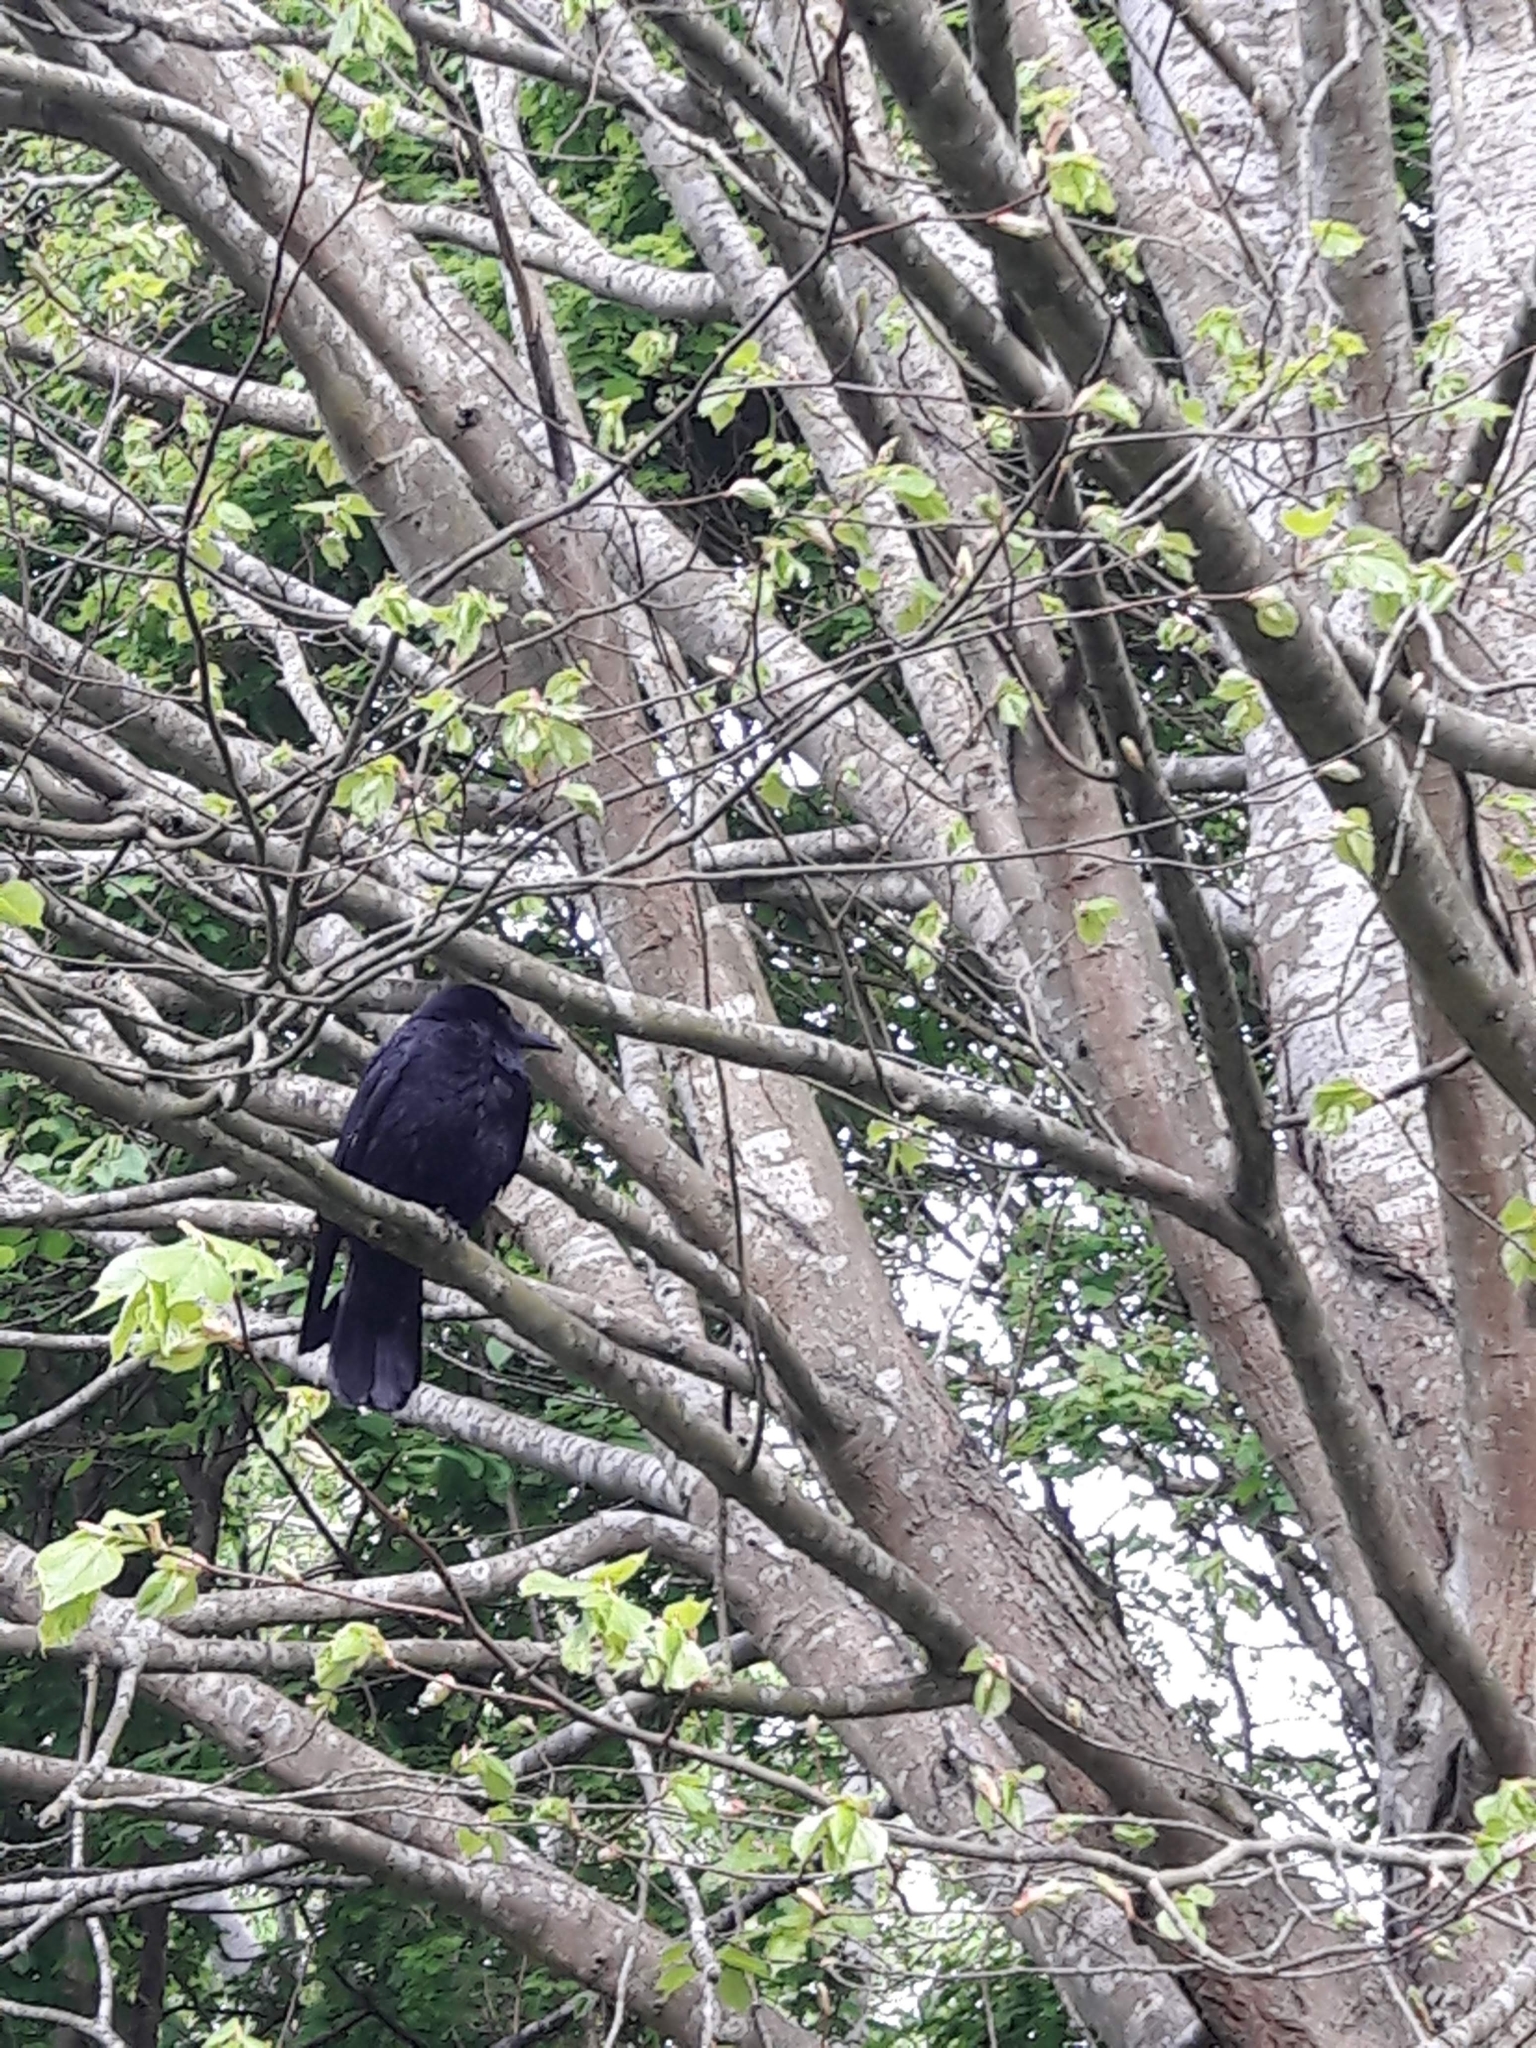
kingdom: Animalia
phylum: Chordata
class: Aves
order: Passeriformes
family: Corvidae
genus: Corvus
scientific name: Corvus corone
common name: Carrion crow
